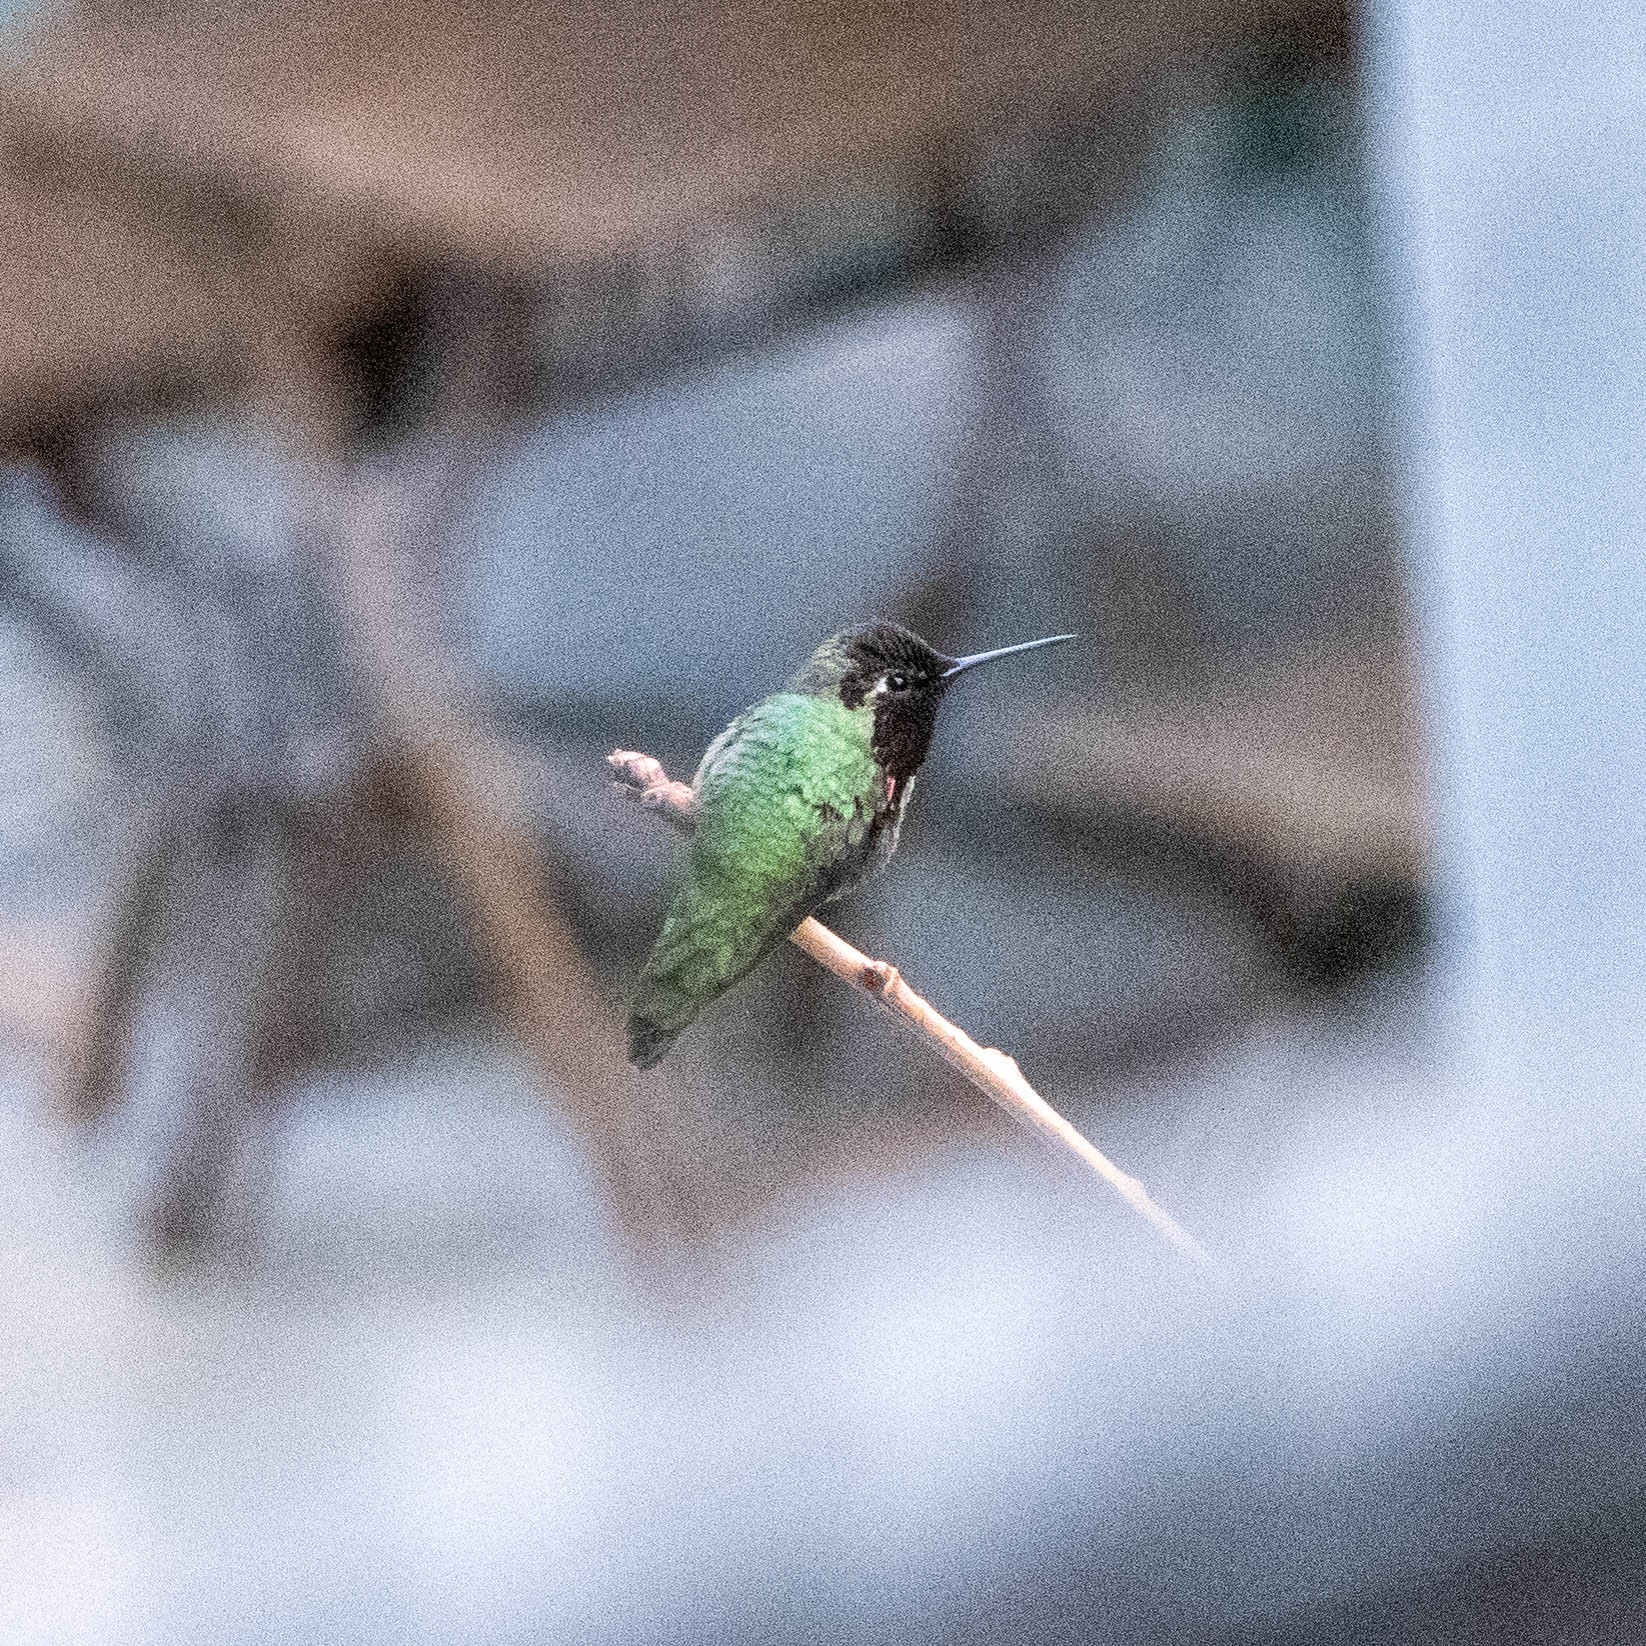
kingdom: Animalia
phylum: Chordata
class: Aves
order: Apodiformes
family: Trochilidae
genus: Calypte
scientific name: Calypte anna
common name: Anna's hummingbird
